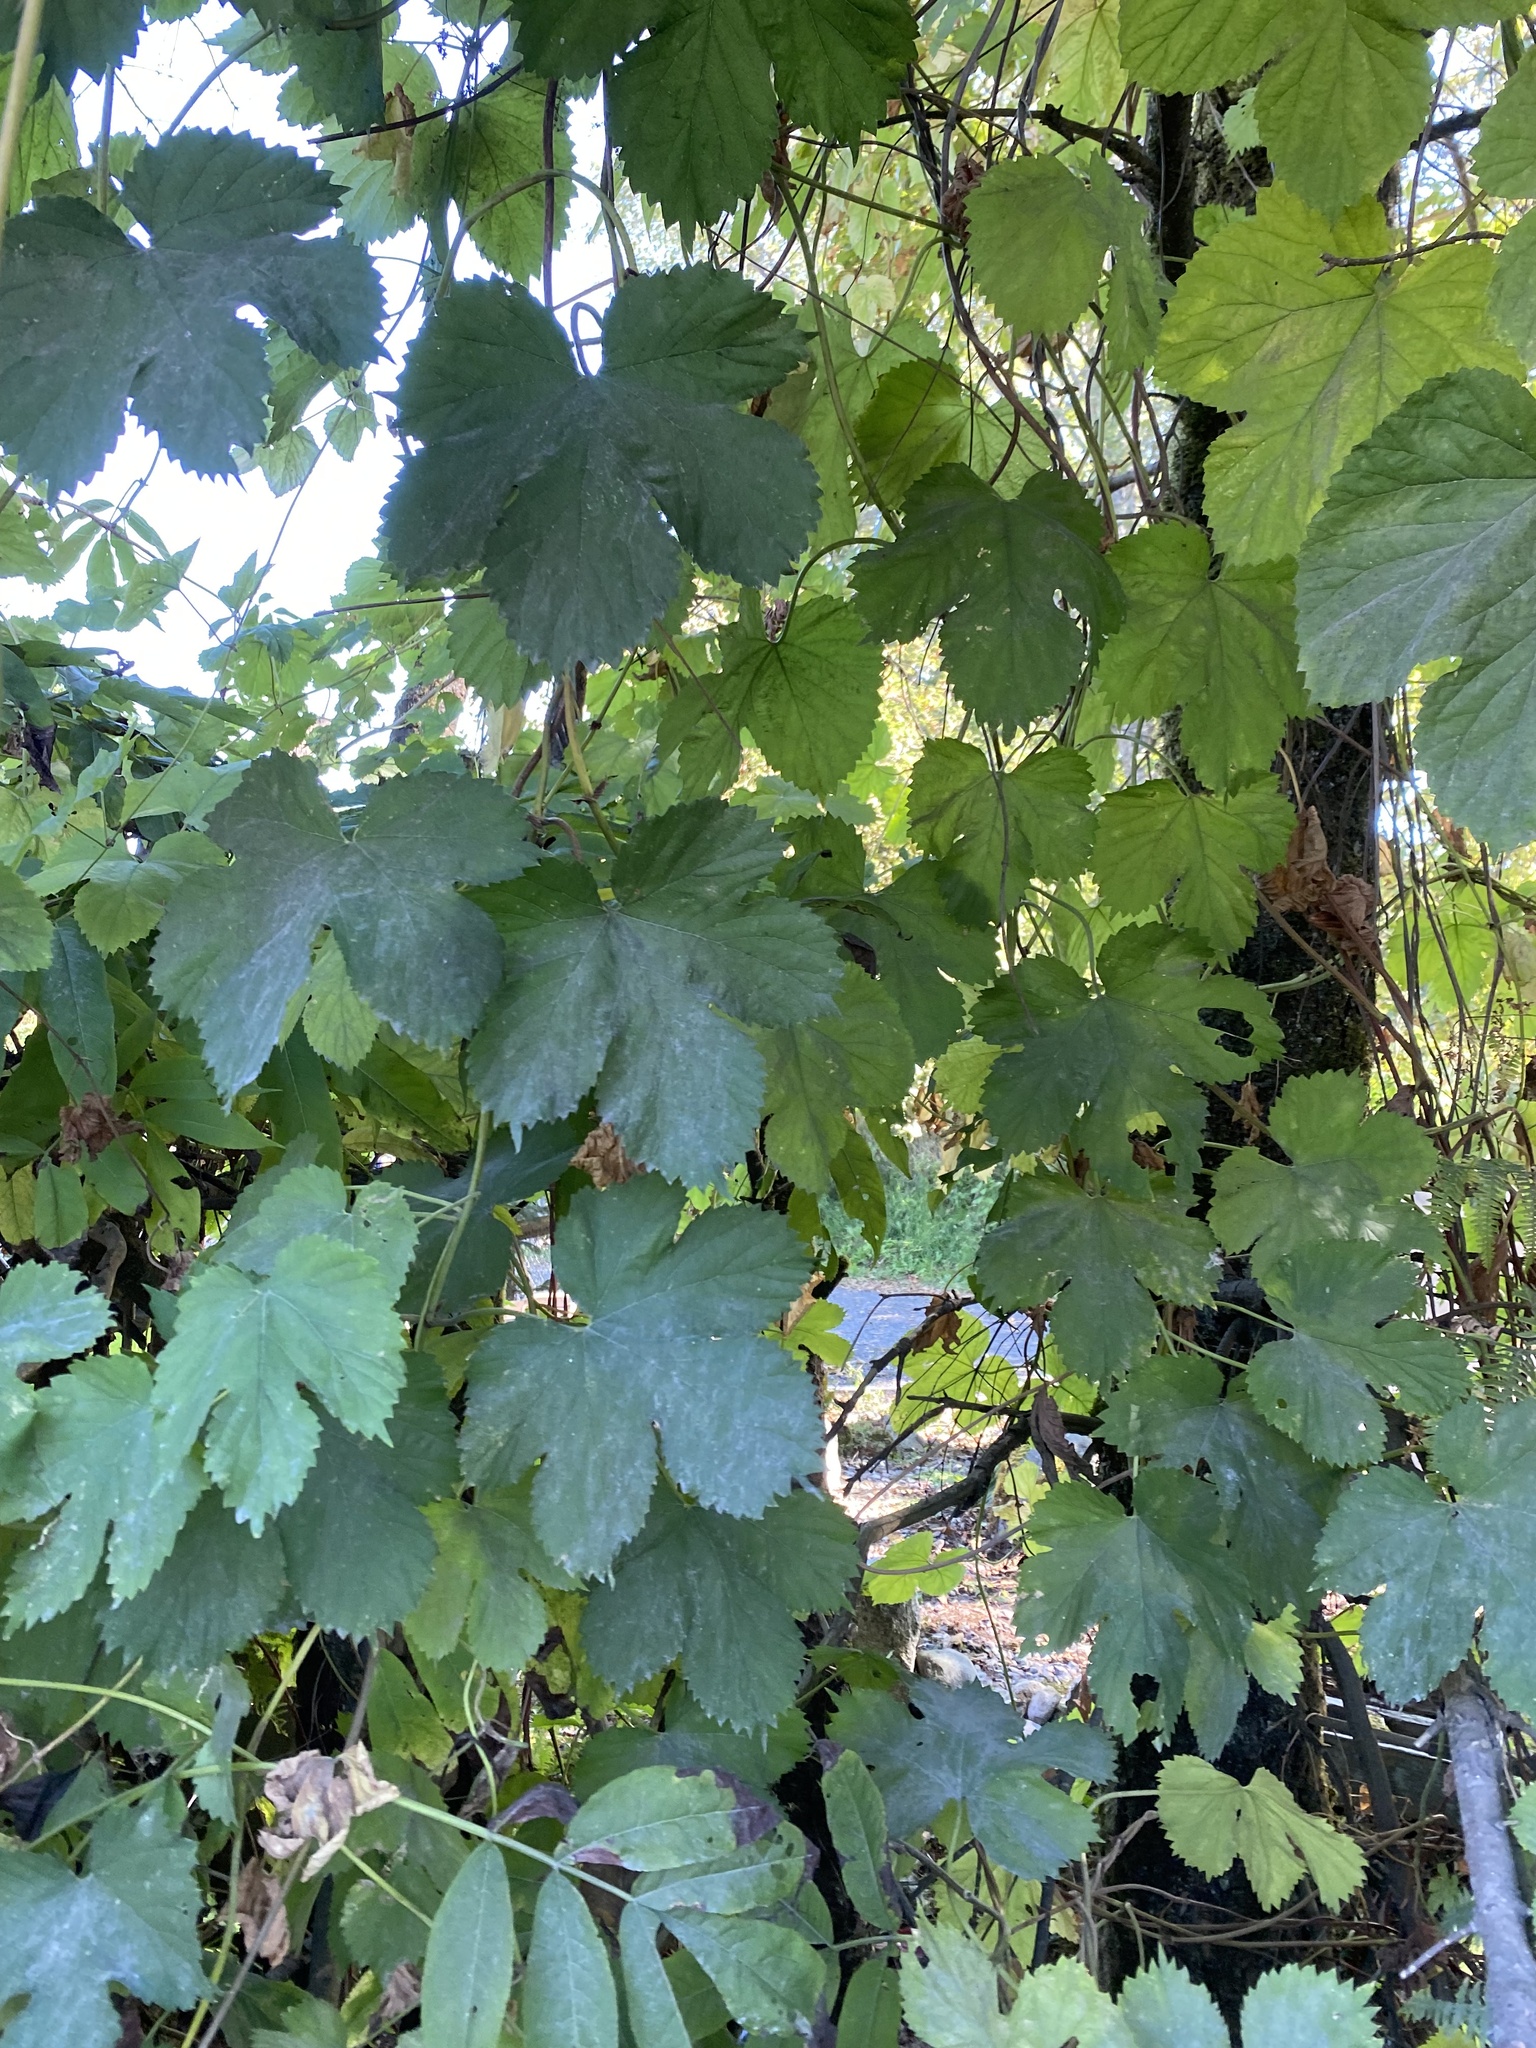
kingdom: Plantae
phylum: Tracheophyta
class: Magnoliopsida
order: Rosales
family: Cannabaceae
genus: Humulus
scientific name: Humulus lupulus
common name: Hop
